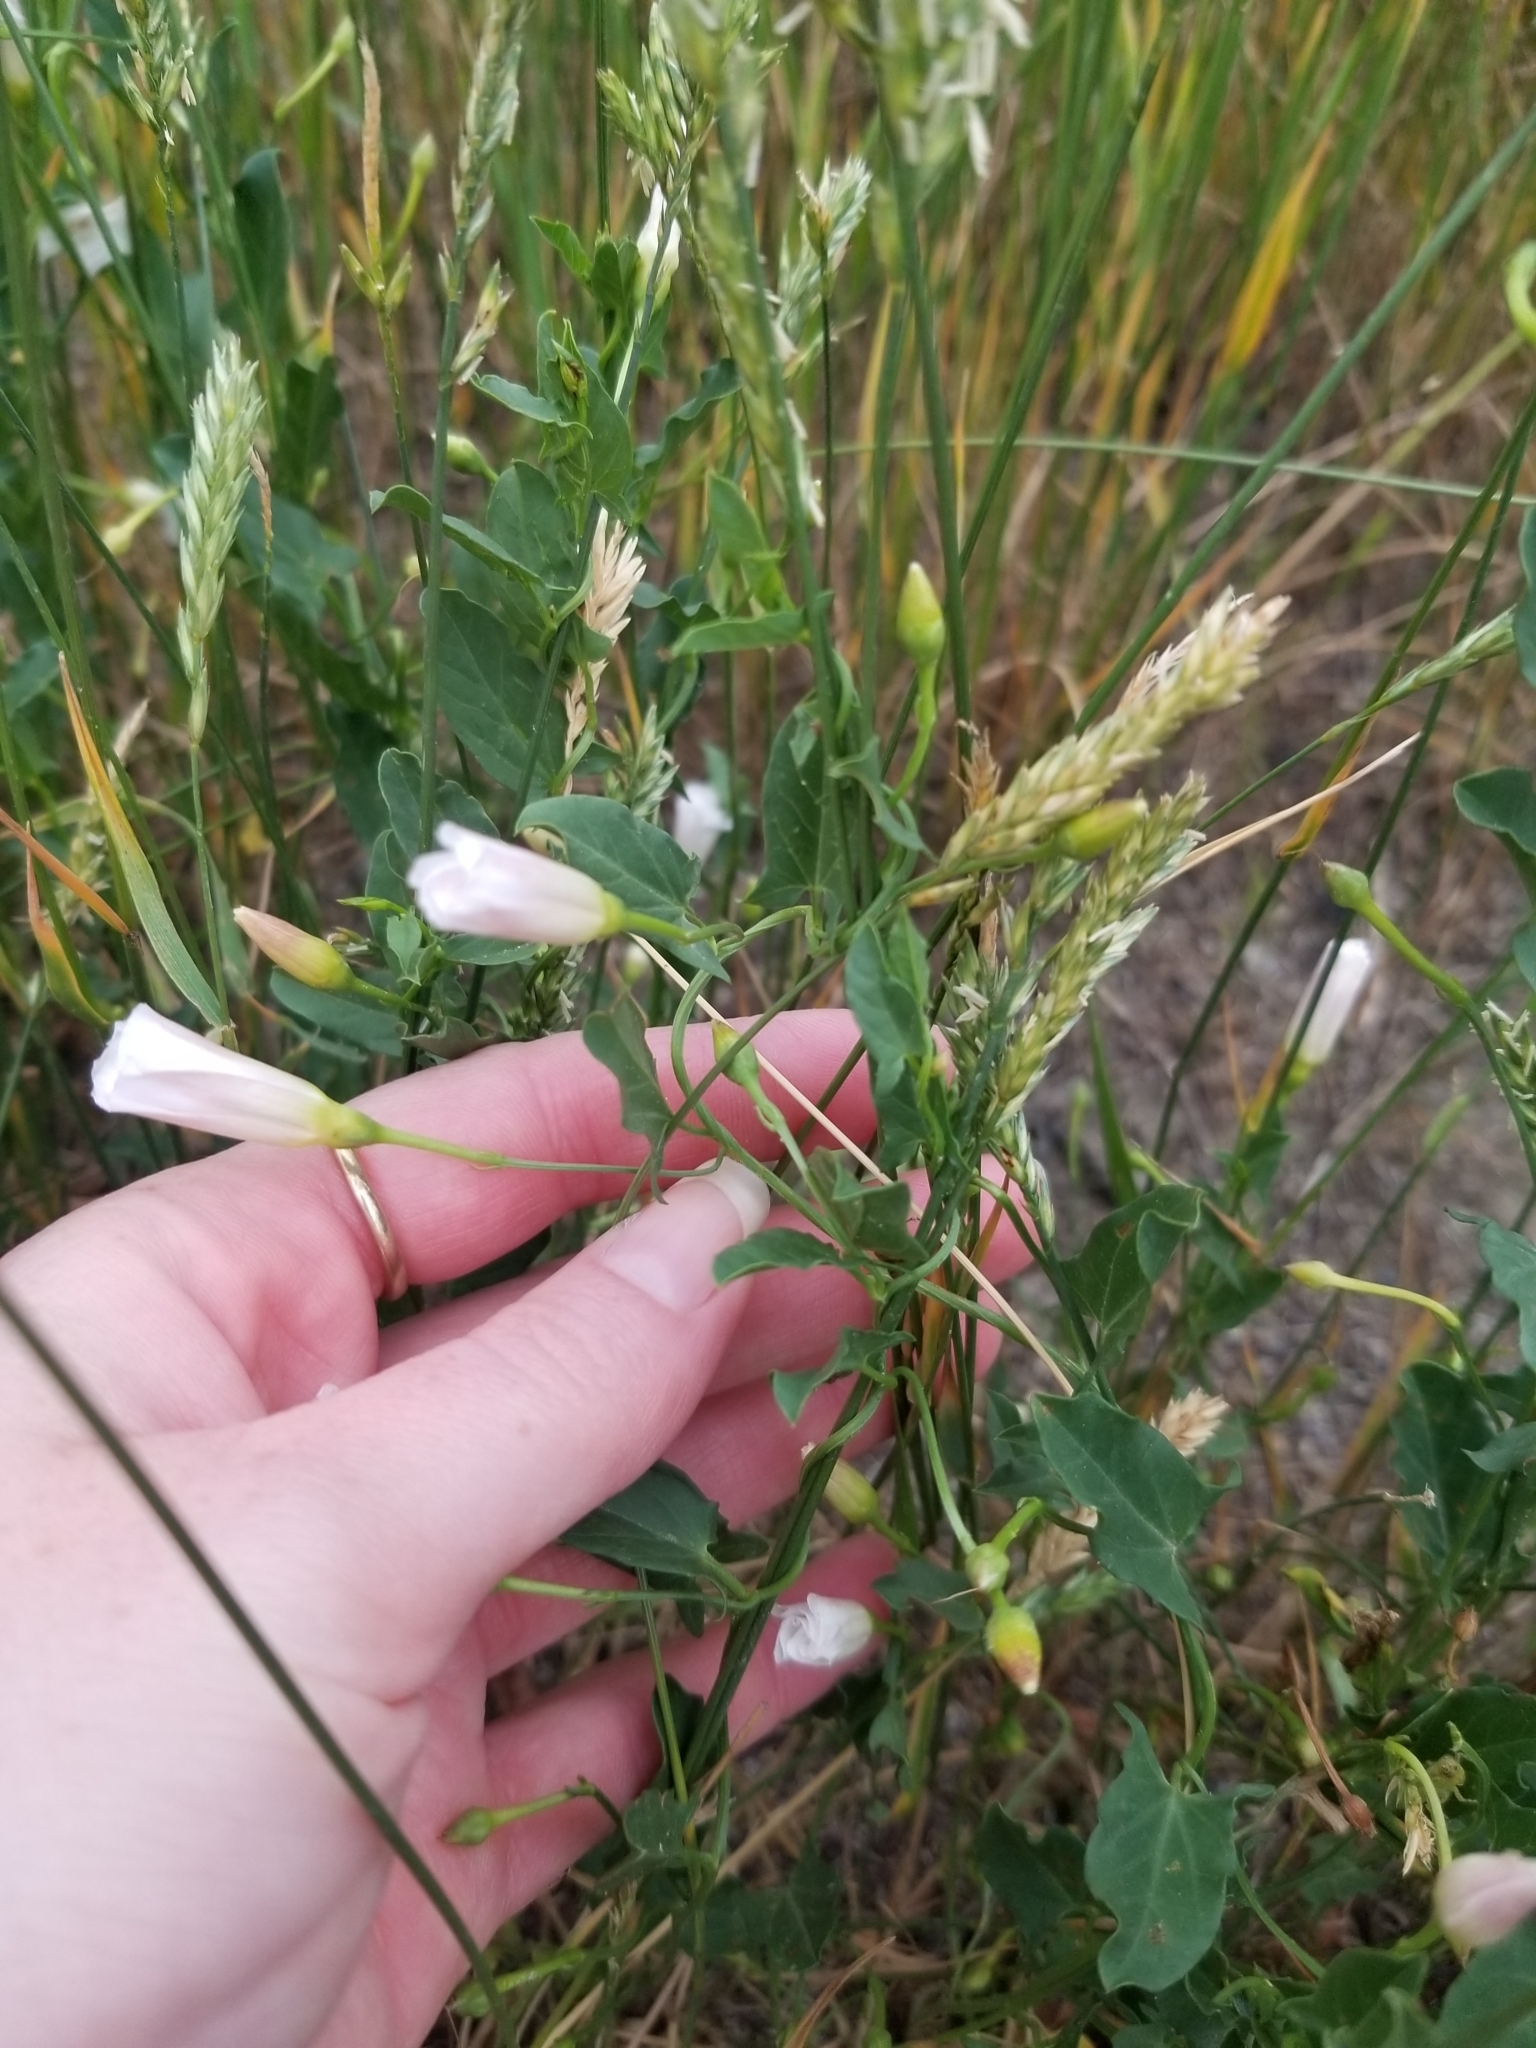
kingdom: Plantae
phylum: Tracheophyta
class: Magnoliopsida
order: Solanales
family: Convolvulaceae
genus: Convolvulus
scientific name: Convolvulus arvensis
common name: Field bindweed
